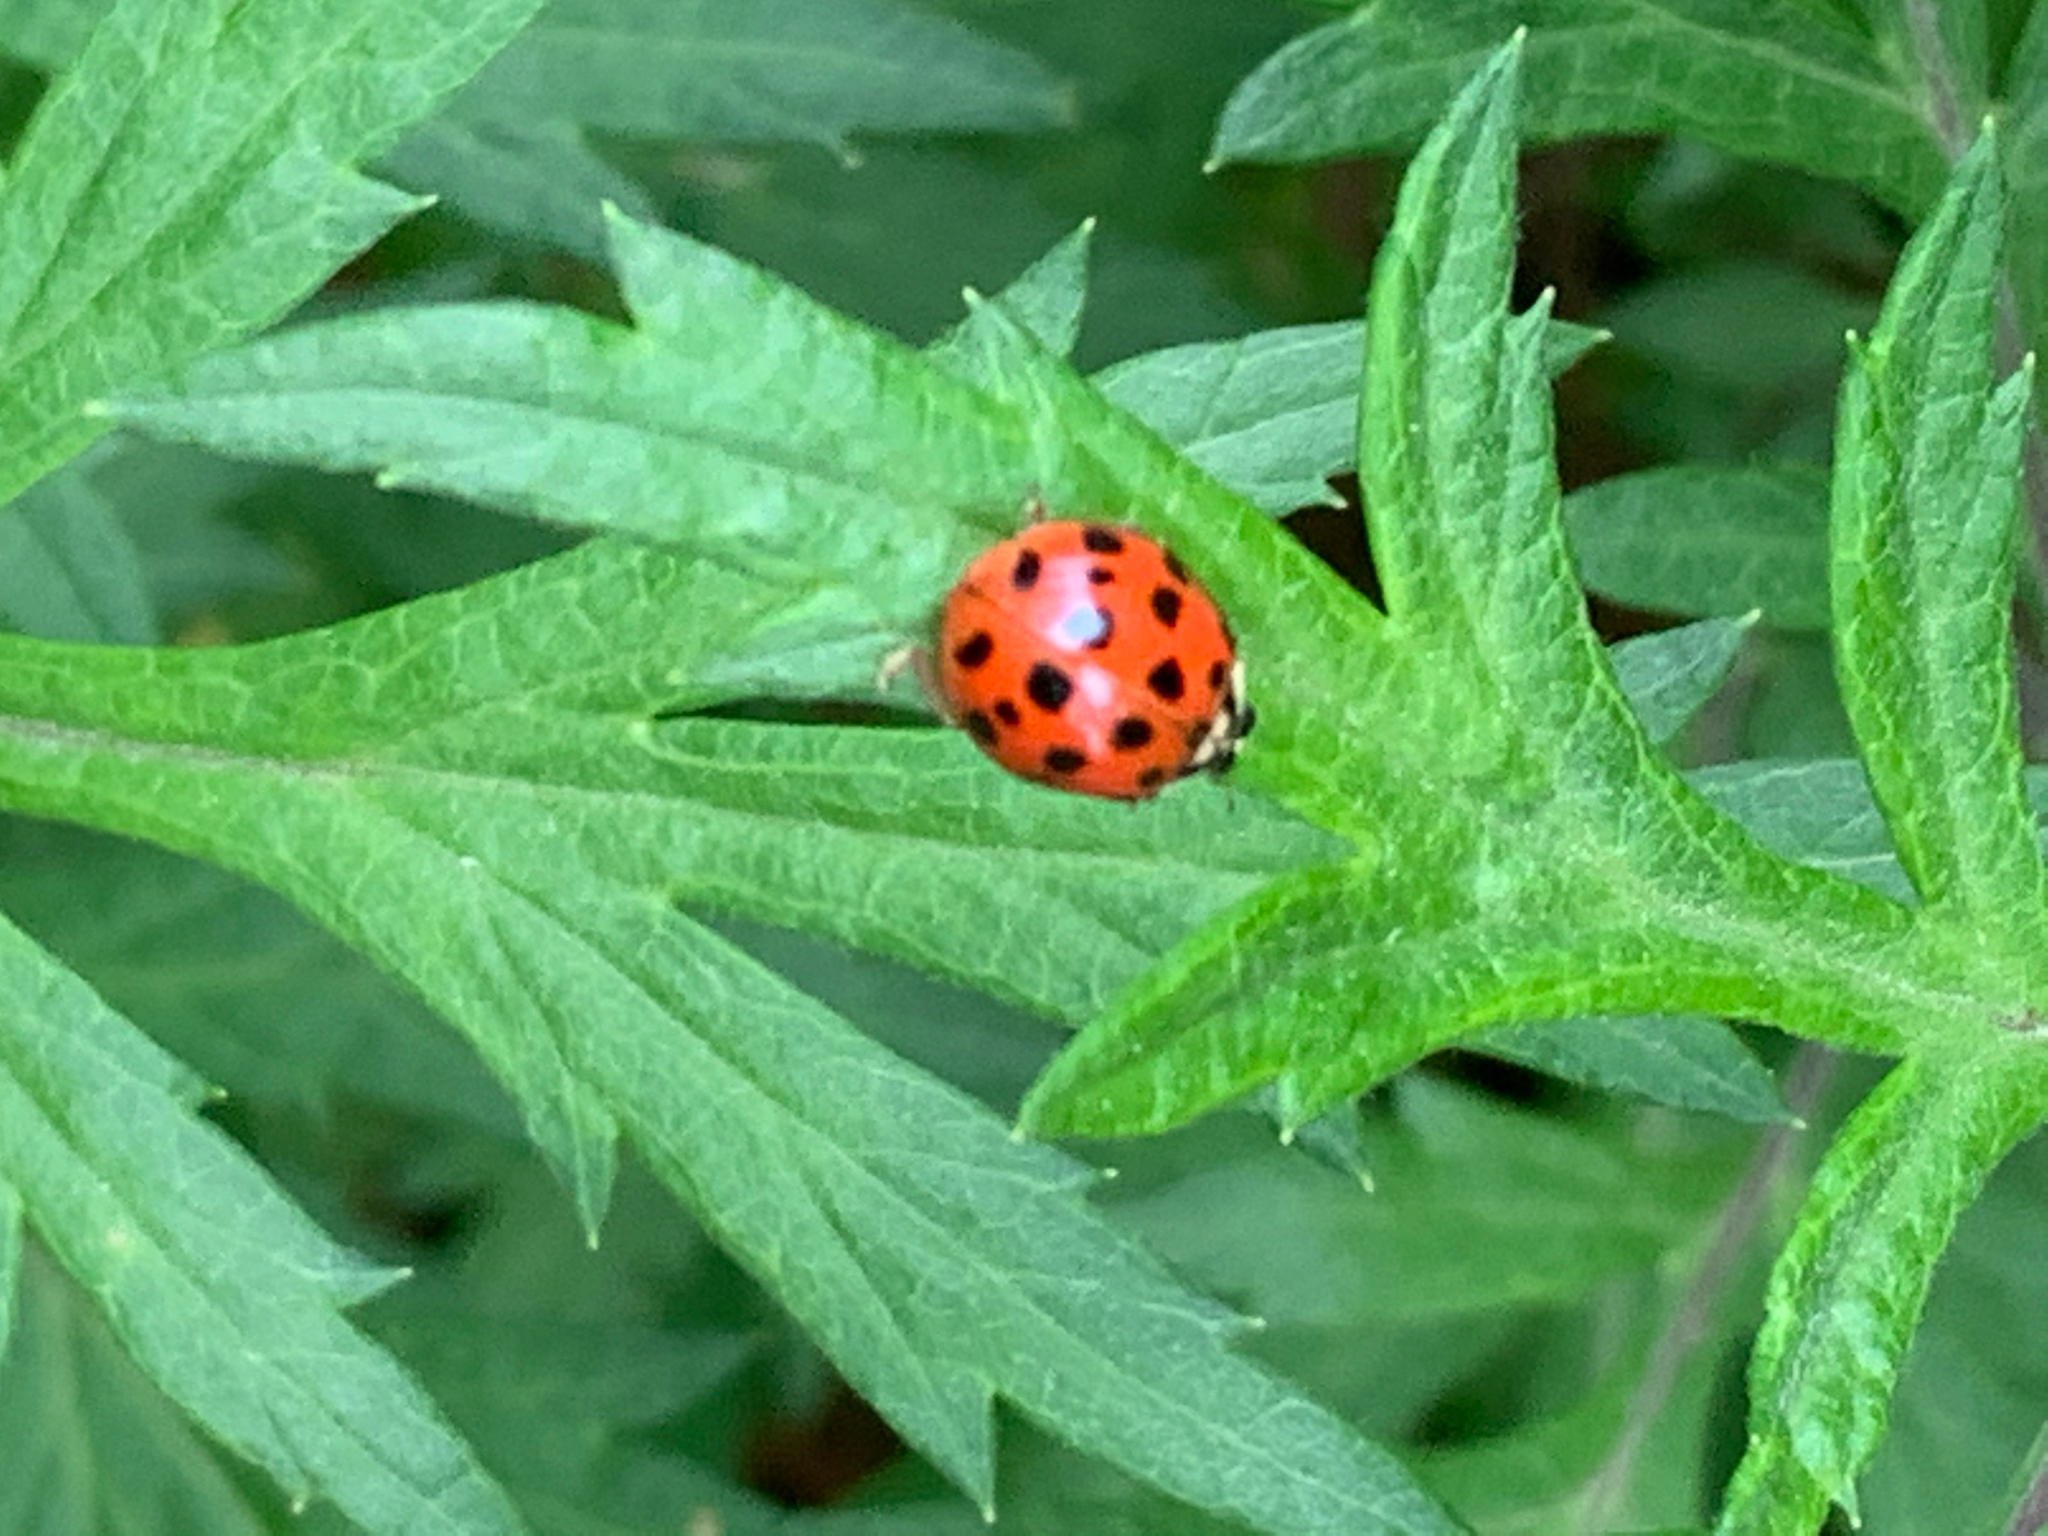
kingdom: Animalia
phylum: Arthropoda
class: Insecta
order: Coleoptera
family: Coccinellidae
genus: Harmonia
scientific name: Harmonia axyridis
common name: Harlequin ladybird
